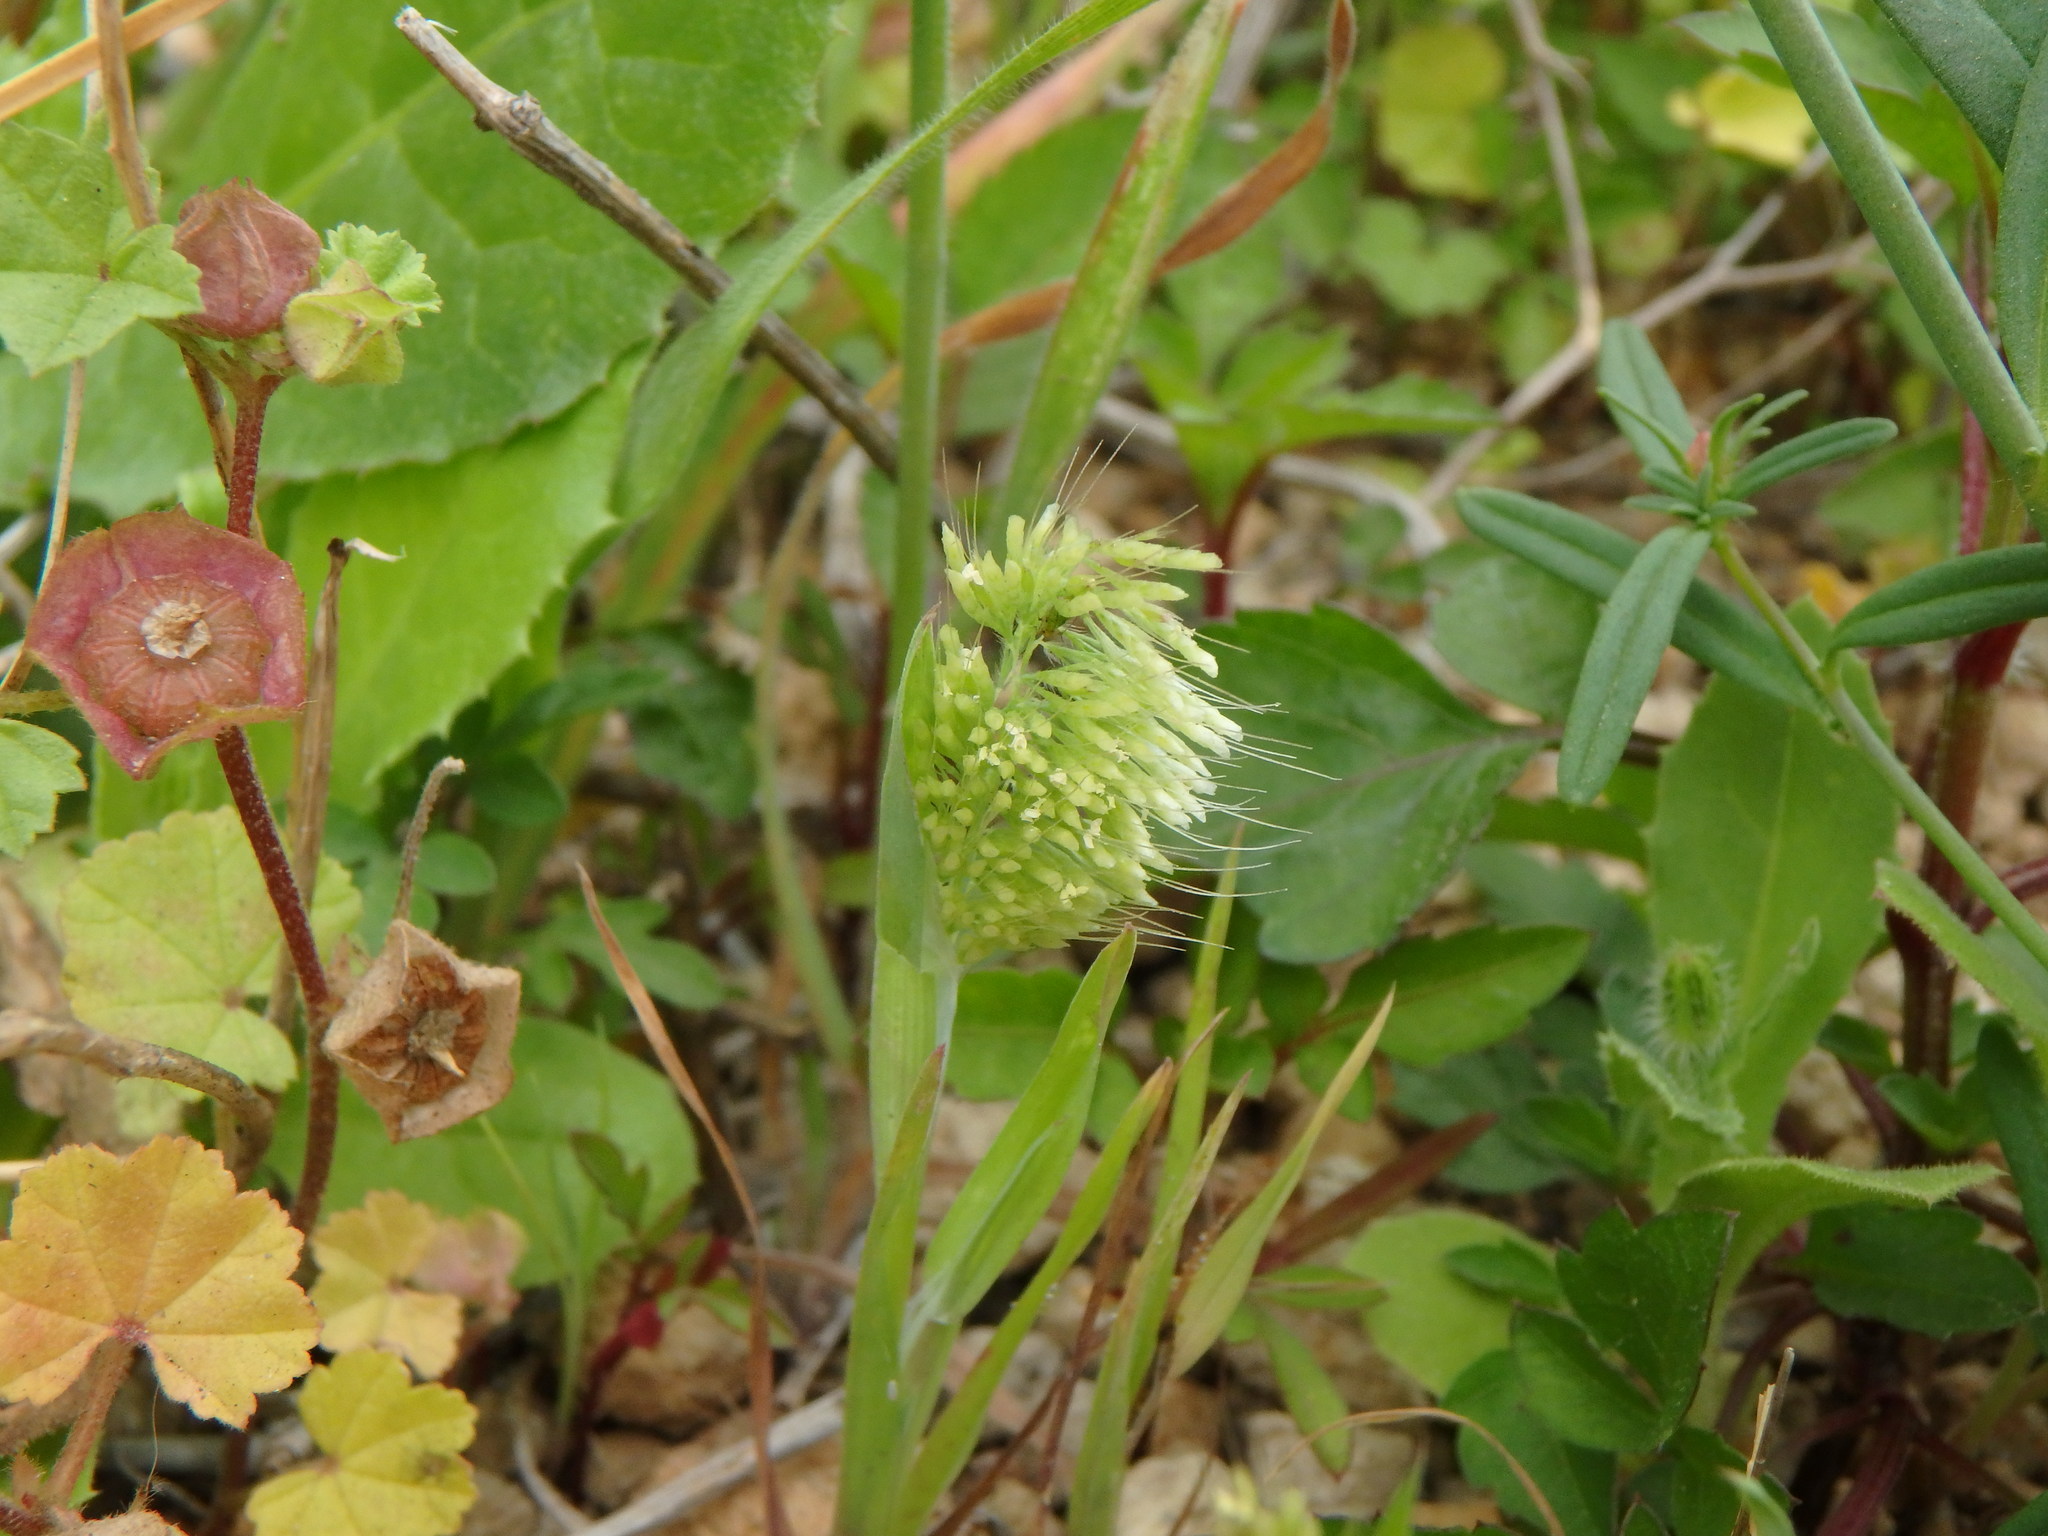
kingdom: Plantae
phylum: Tracheophyta
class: Liliopsida
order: Poales
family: Poaceae
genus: Lamarckia
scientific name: Lamarckia aurea
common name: Golden dog's-tail
